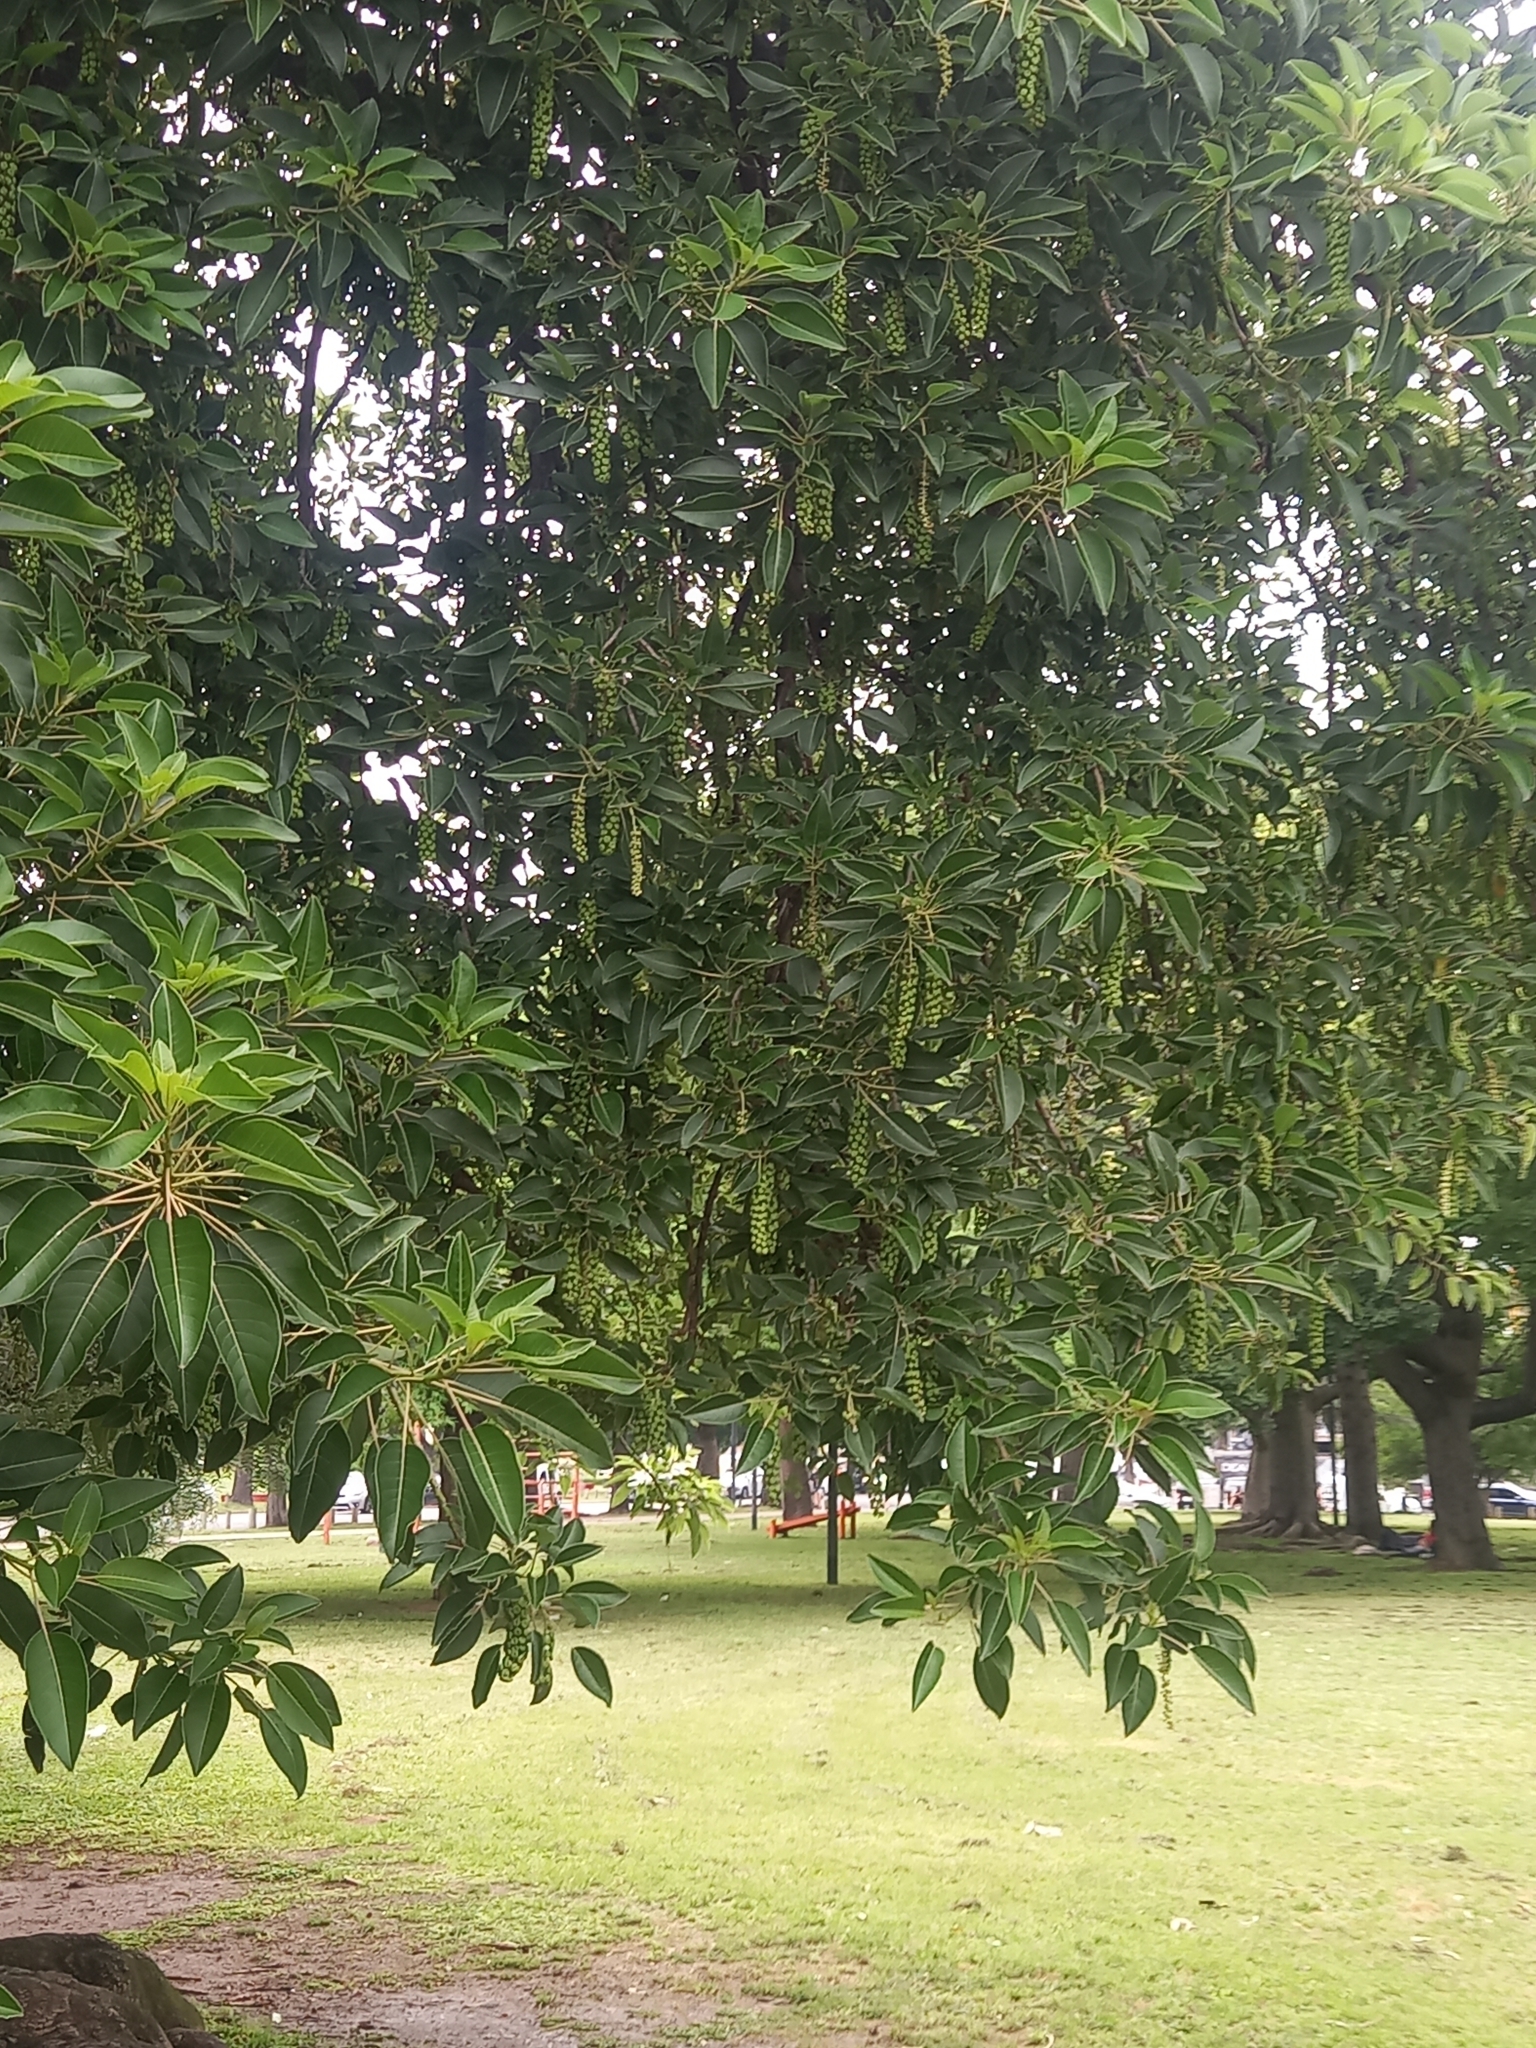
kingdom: Plantae
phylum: Tracheophyta
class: Magnoliopsida
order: Caryophyllales
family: Phytolaccaceae
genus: Phytolacca
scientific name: Phytolacca dioica
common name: Pokeweed
